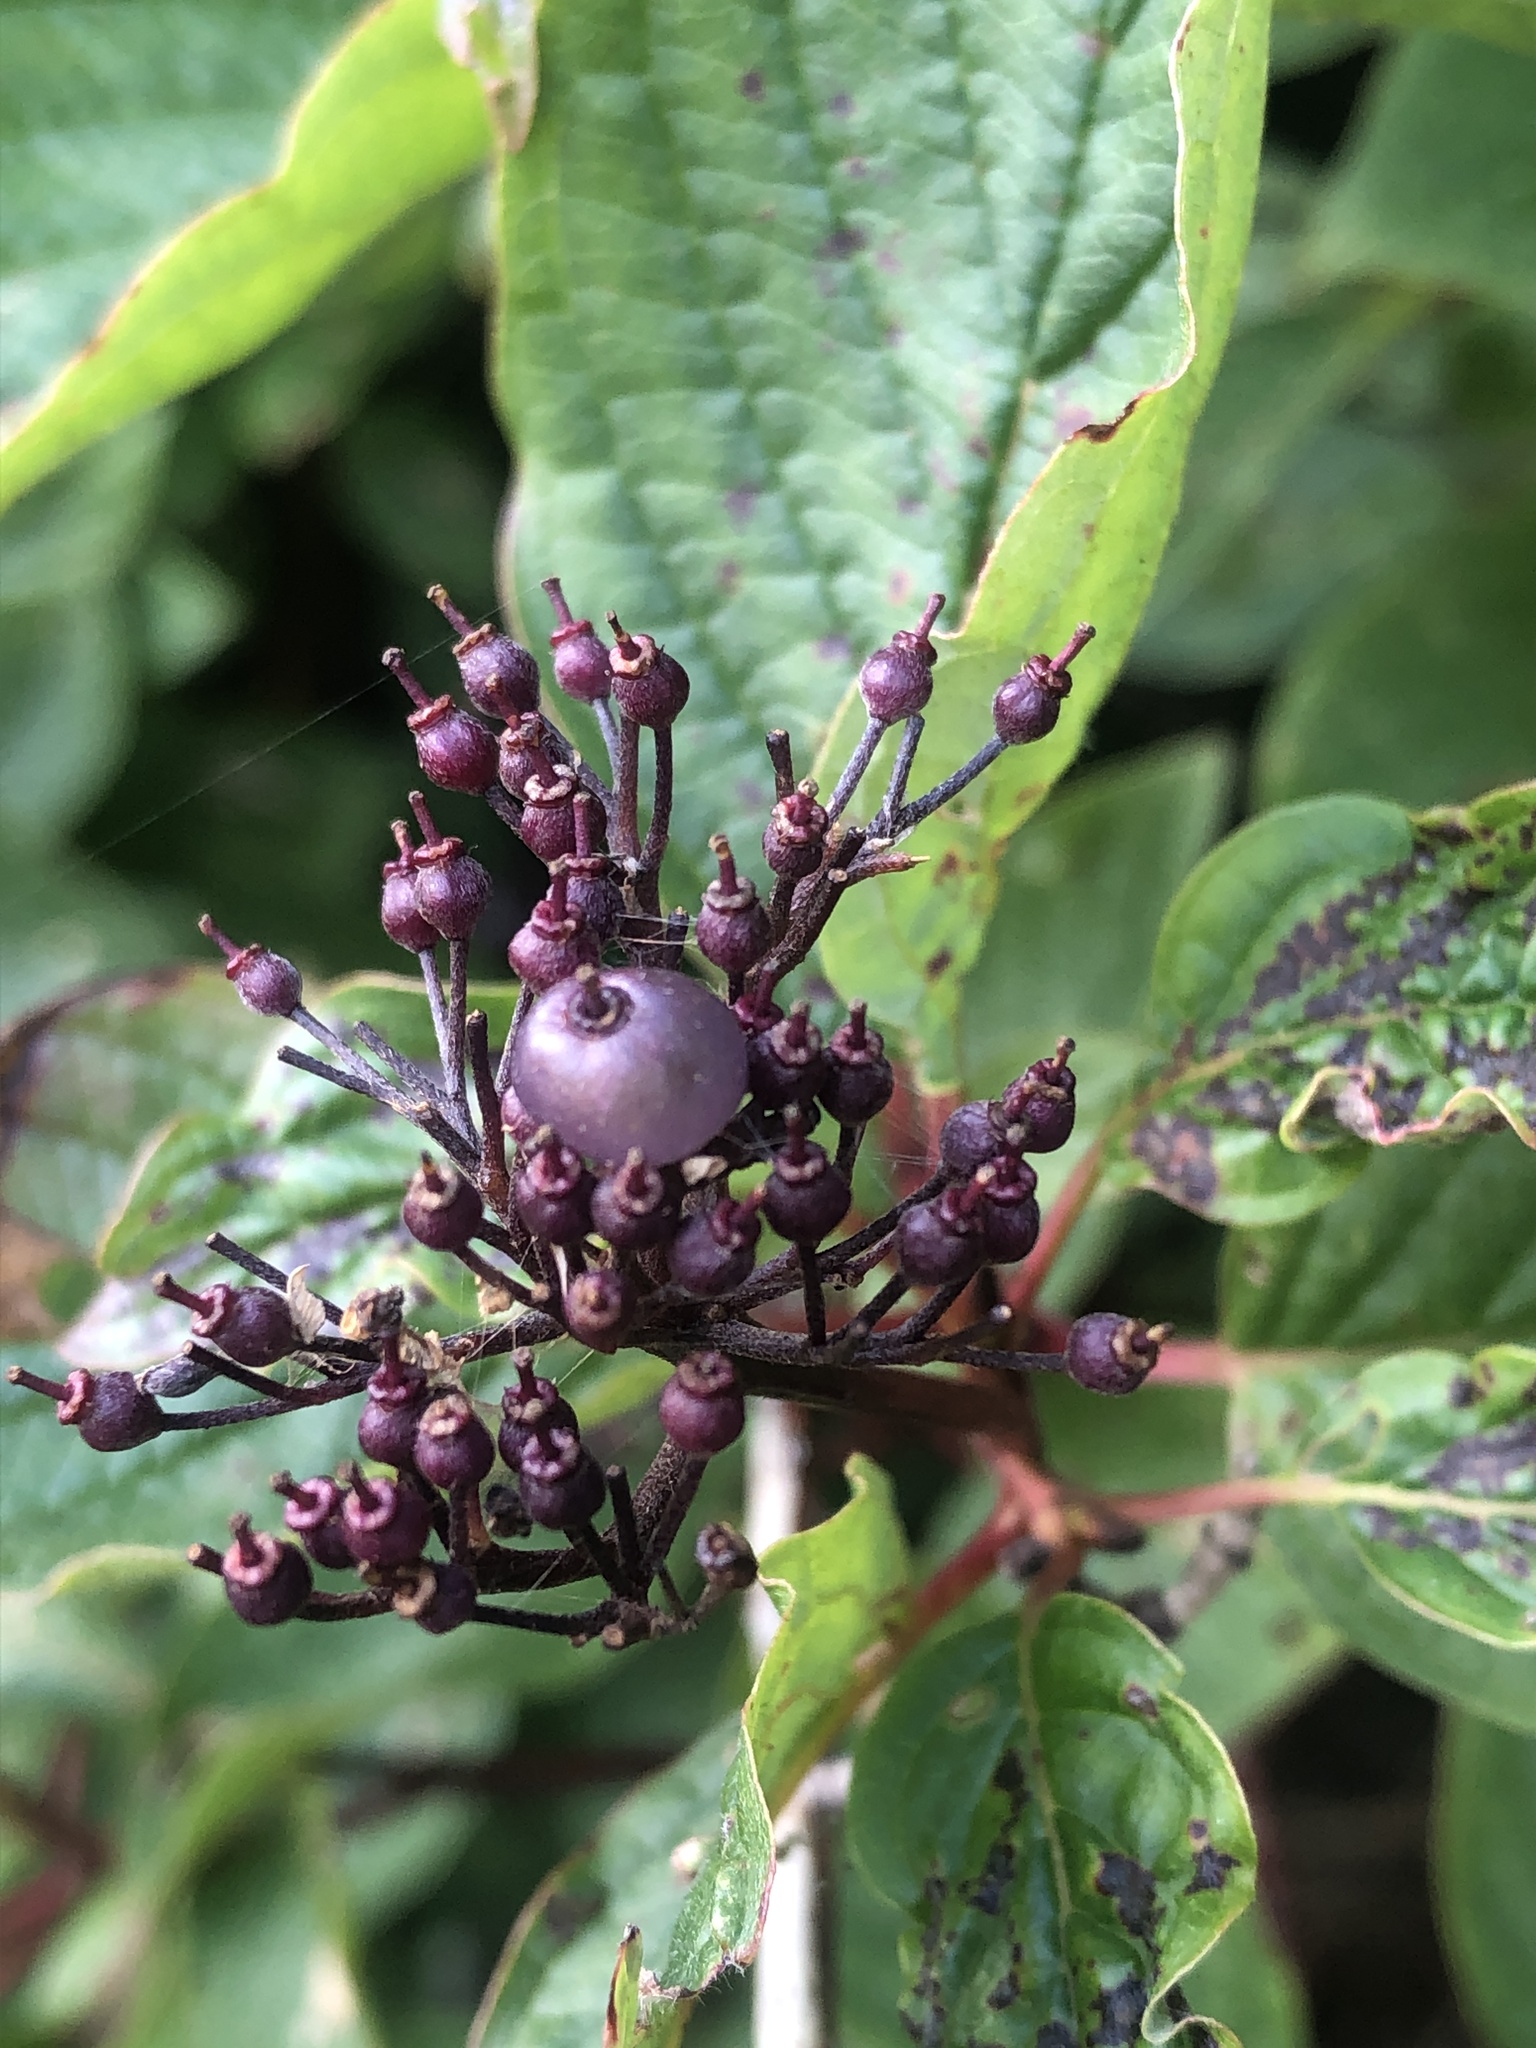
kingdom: Plantae
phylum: Tracheophyta
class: Magnoliopsida
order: Cornales
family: Cornaceae
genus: Cornus
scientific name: Cornus sericea
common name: Red-osier dogwood
